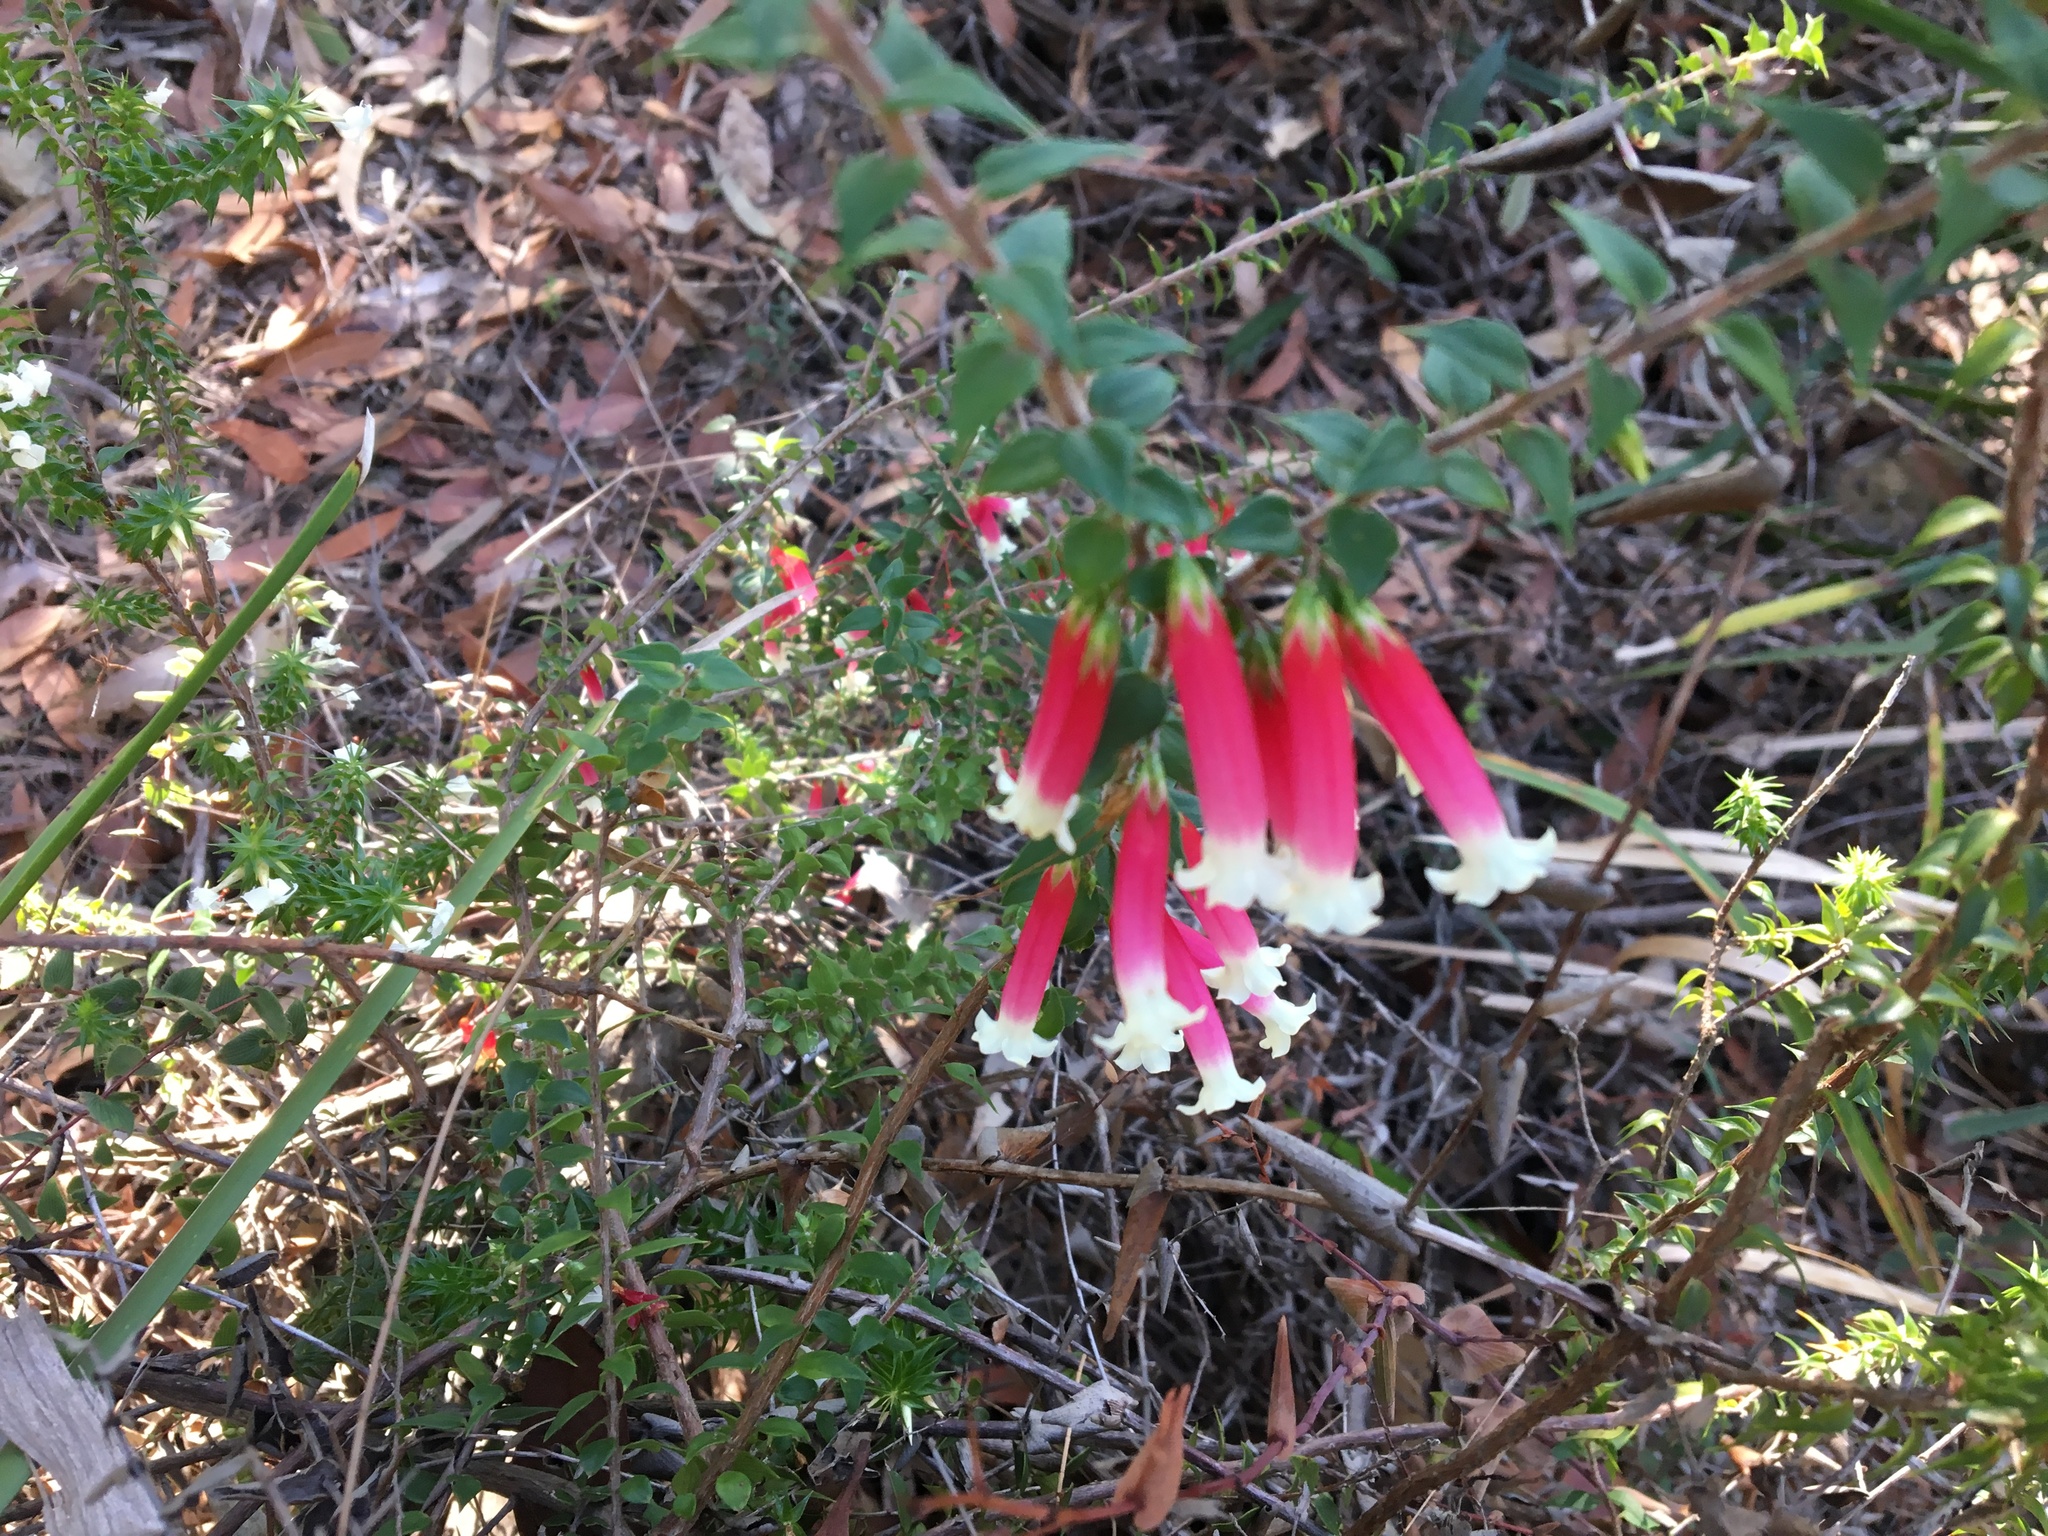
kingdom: Plantae
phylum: Tracheophyta
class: Magnoliopsida
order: Ericales
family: Ericaceae
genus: Epacris
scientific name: Epacris longiflora
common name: Fuchsia-heath
